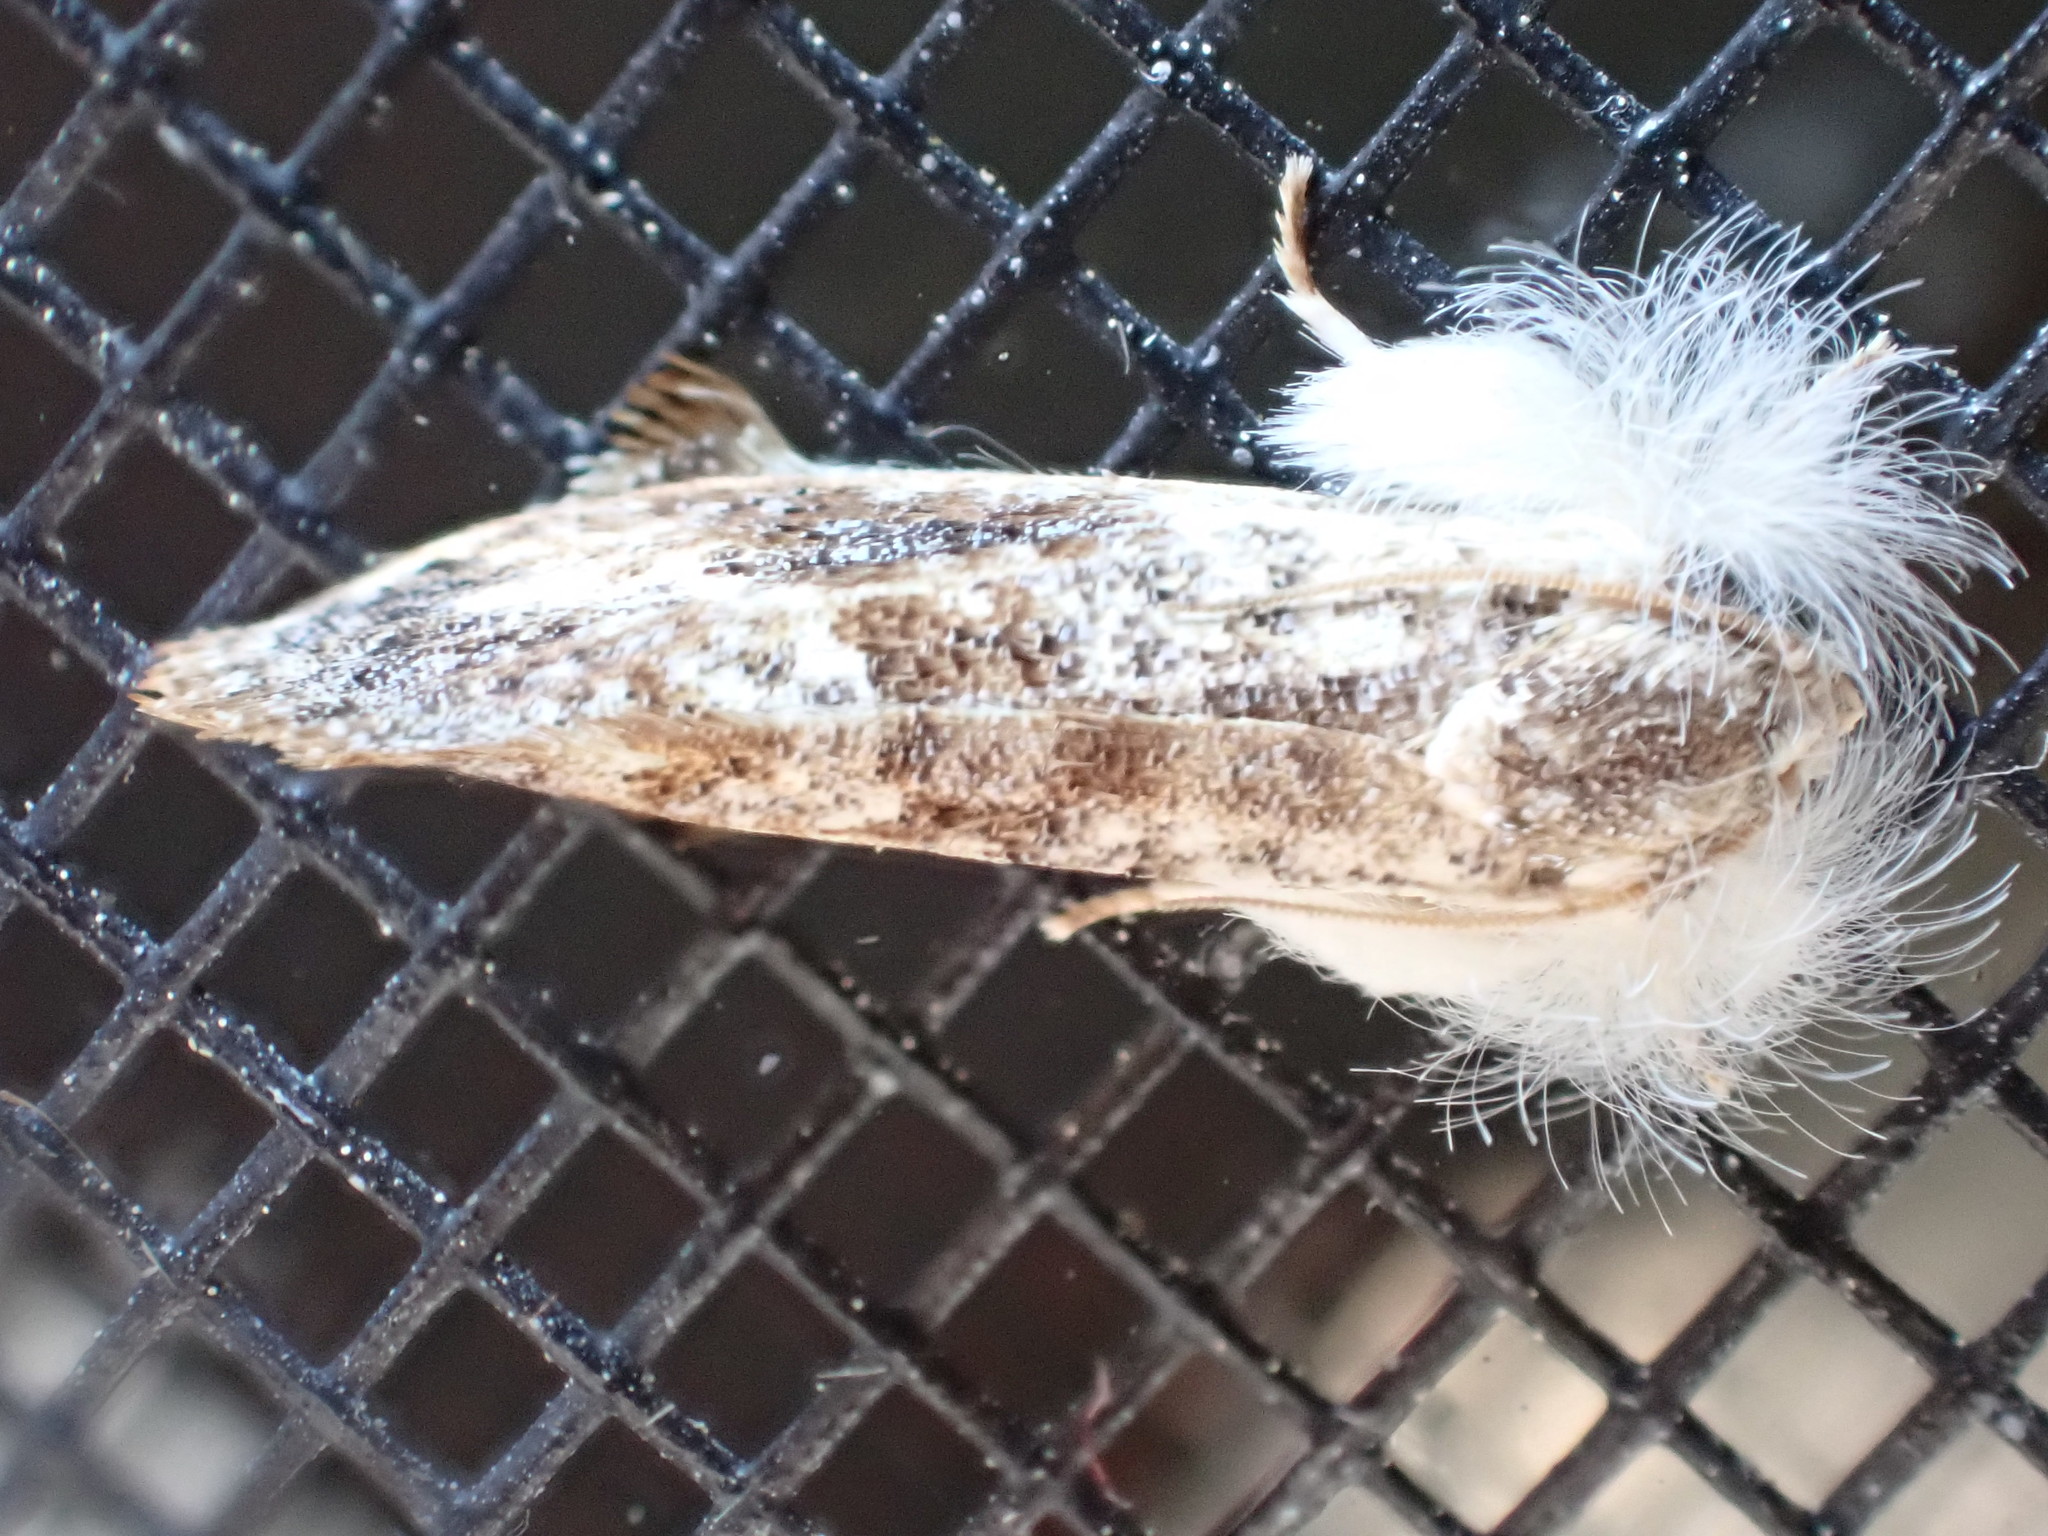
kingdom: Animalia
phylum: Arthropoda
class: Insecta
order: Lepidoptera
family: Tineidae
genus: Acrolophus
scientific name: Acrolophus mycetophagus
